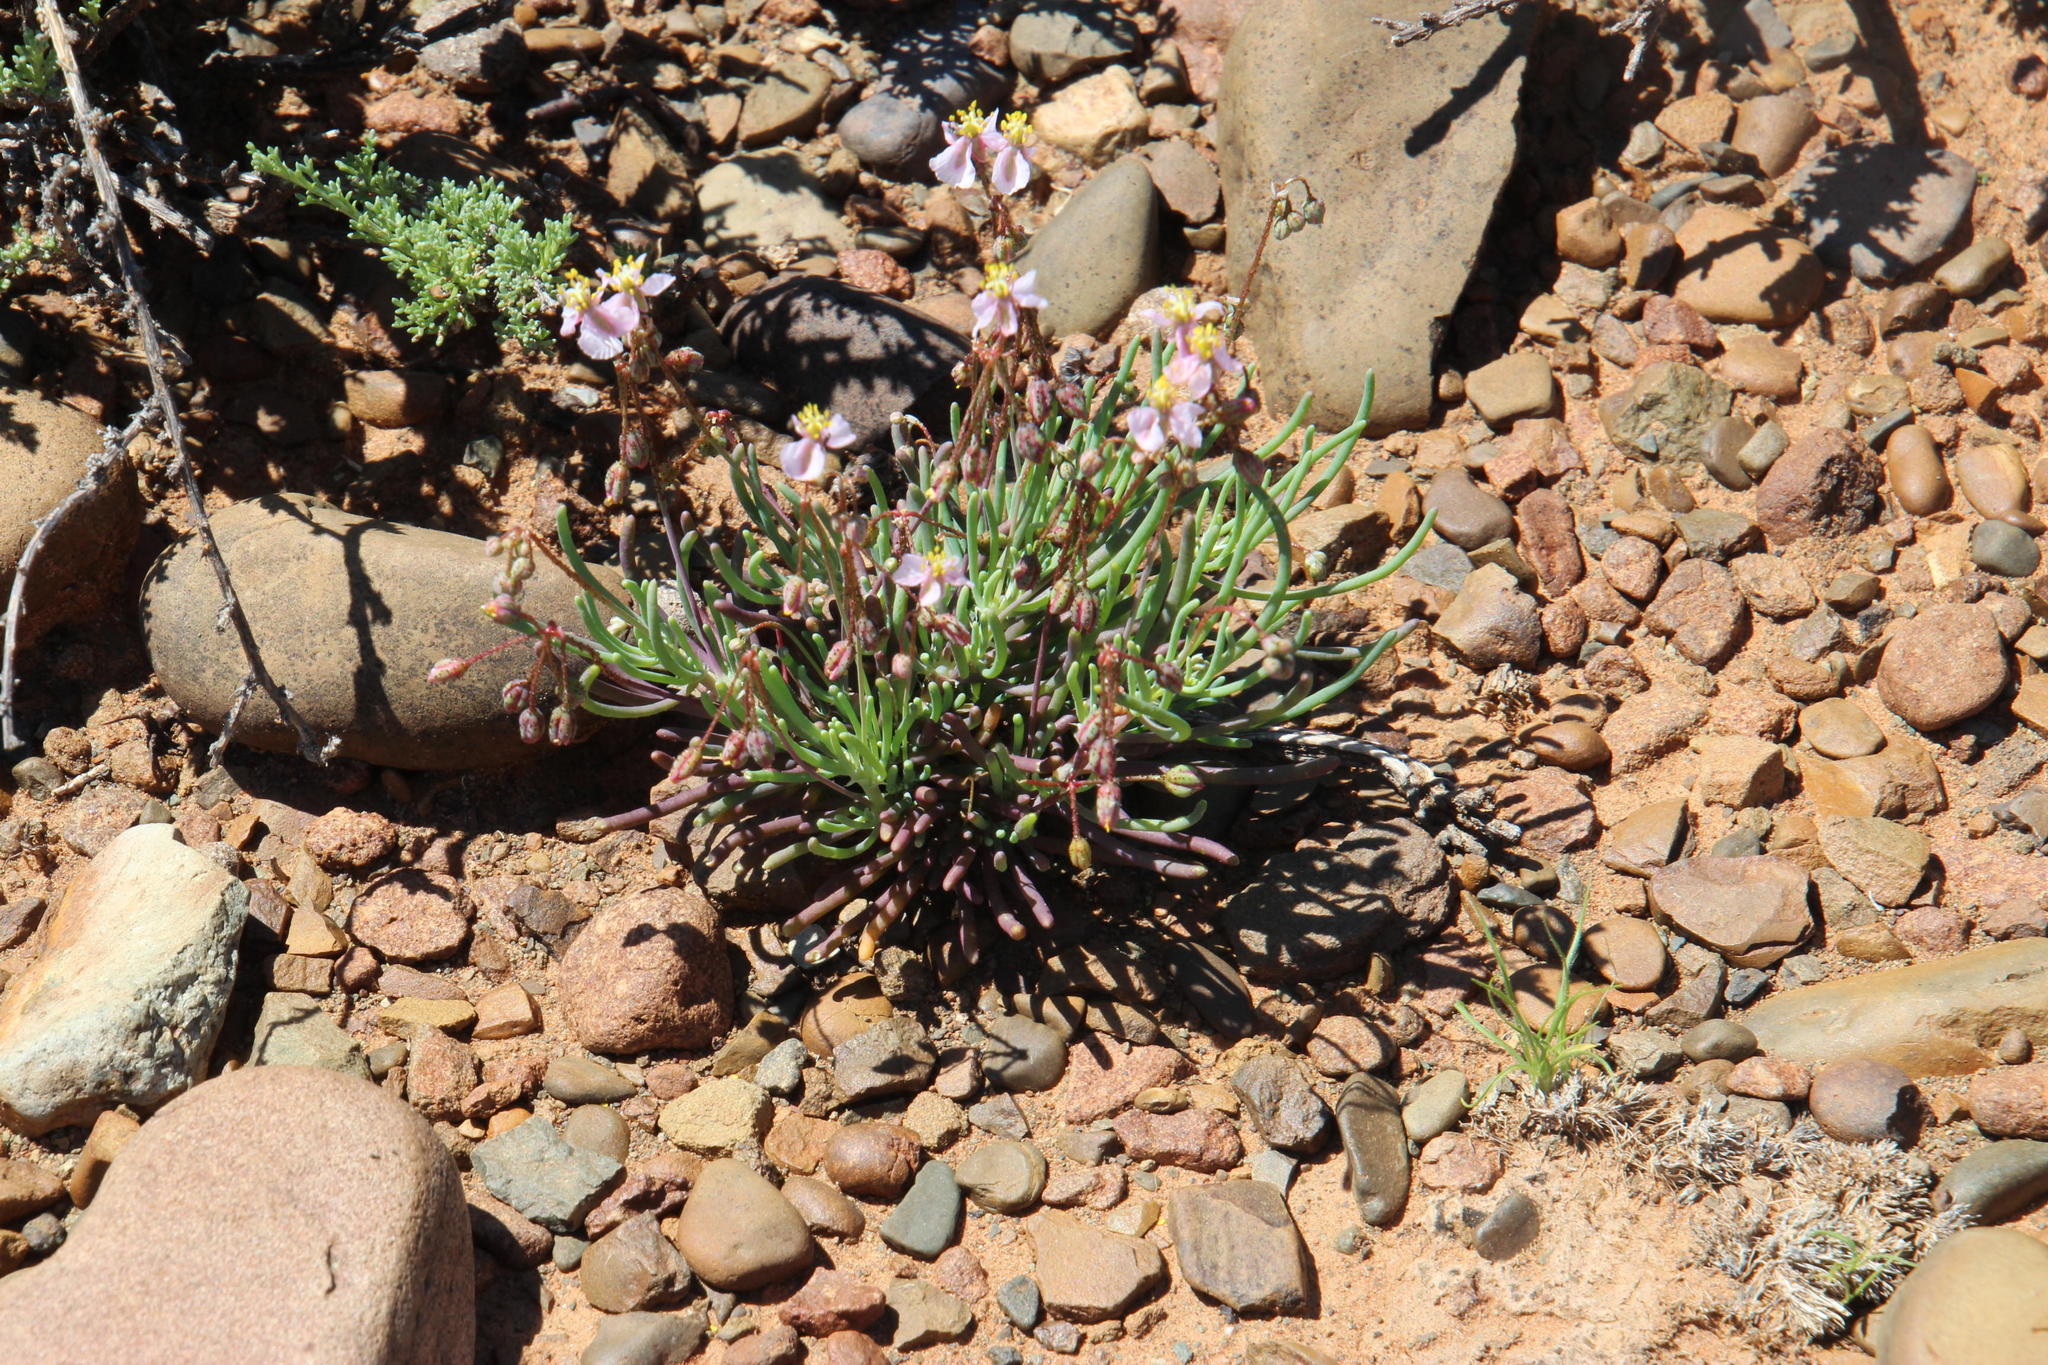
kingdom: Plantae
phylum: Tracheophyta
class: Magnoliopsida
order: Caryophyllales
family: Kewaceae
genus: Kewa
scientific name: Kewa salsoloides
